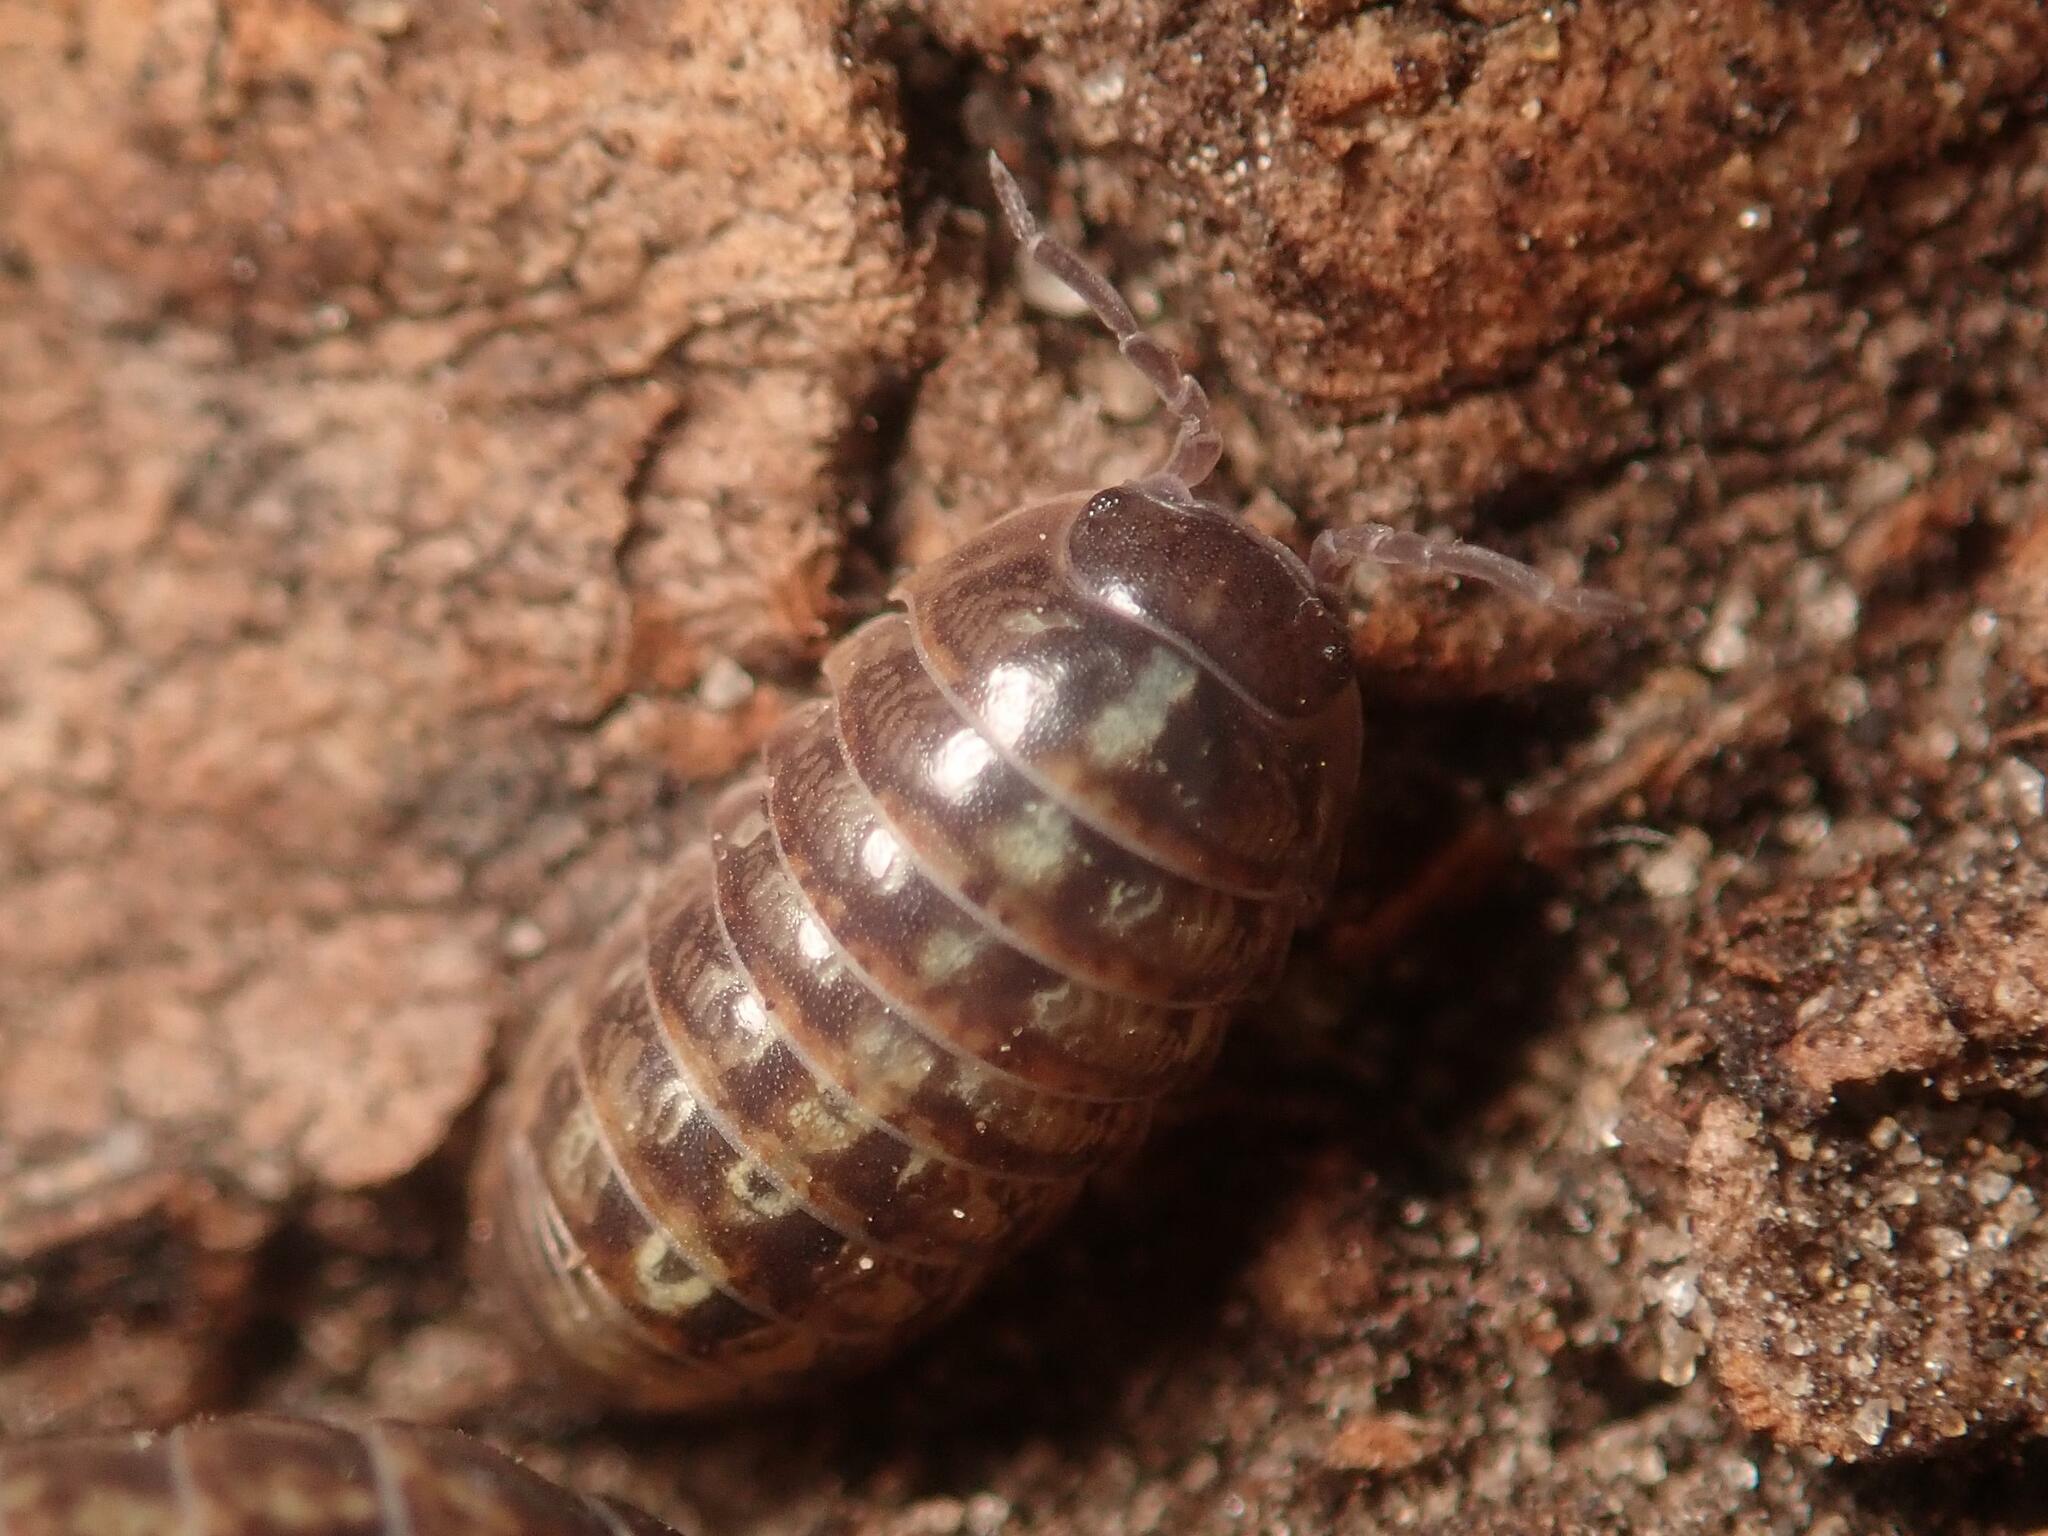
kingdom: Animalia
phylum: Arthropoda
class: Malacostraca
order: Isopoda
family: Armadillidiidae
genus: Armadillidium
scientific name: Armadillidium vulgare
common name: Common pill woodlouse
